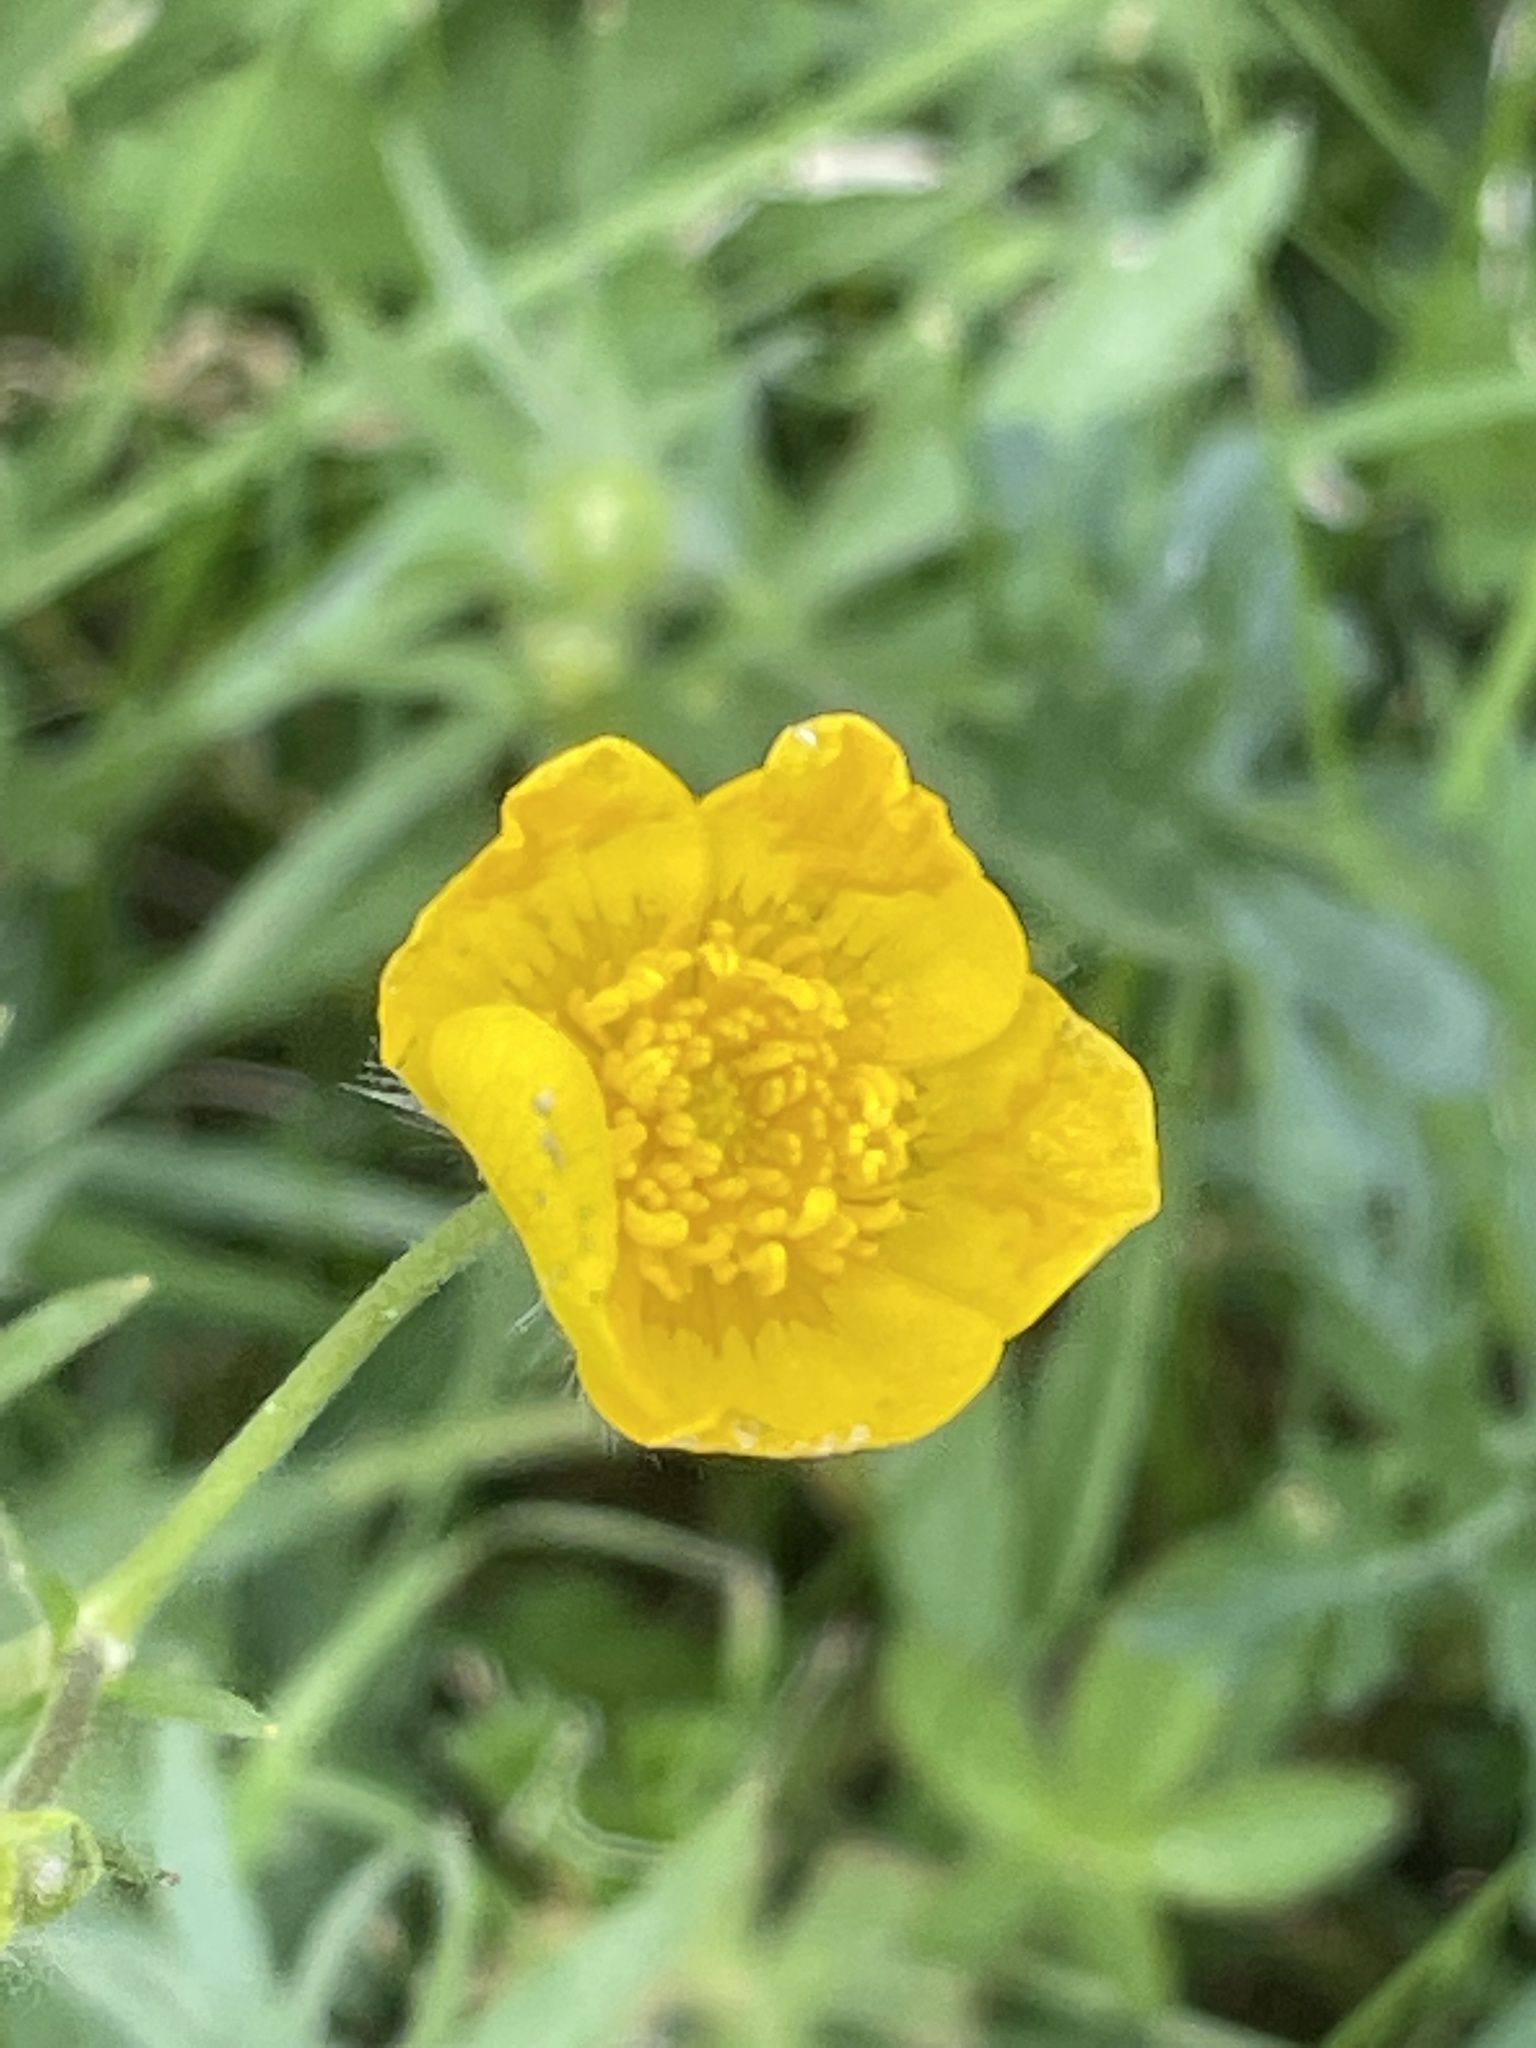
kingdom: Plantae
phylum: Tracheophyta
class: Magnoliopsida
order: Ranunculales
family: Ranunculaceae
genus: Ranunculus
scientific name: Ranunculus acris
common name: Meadow buttercup
